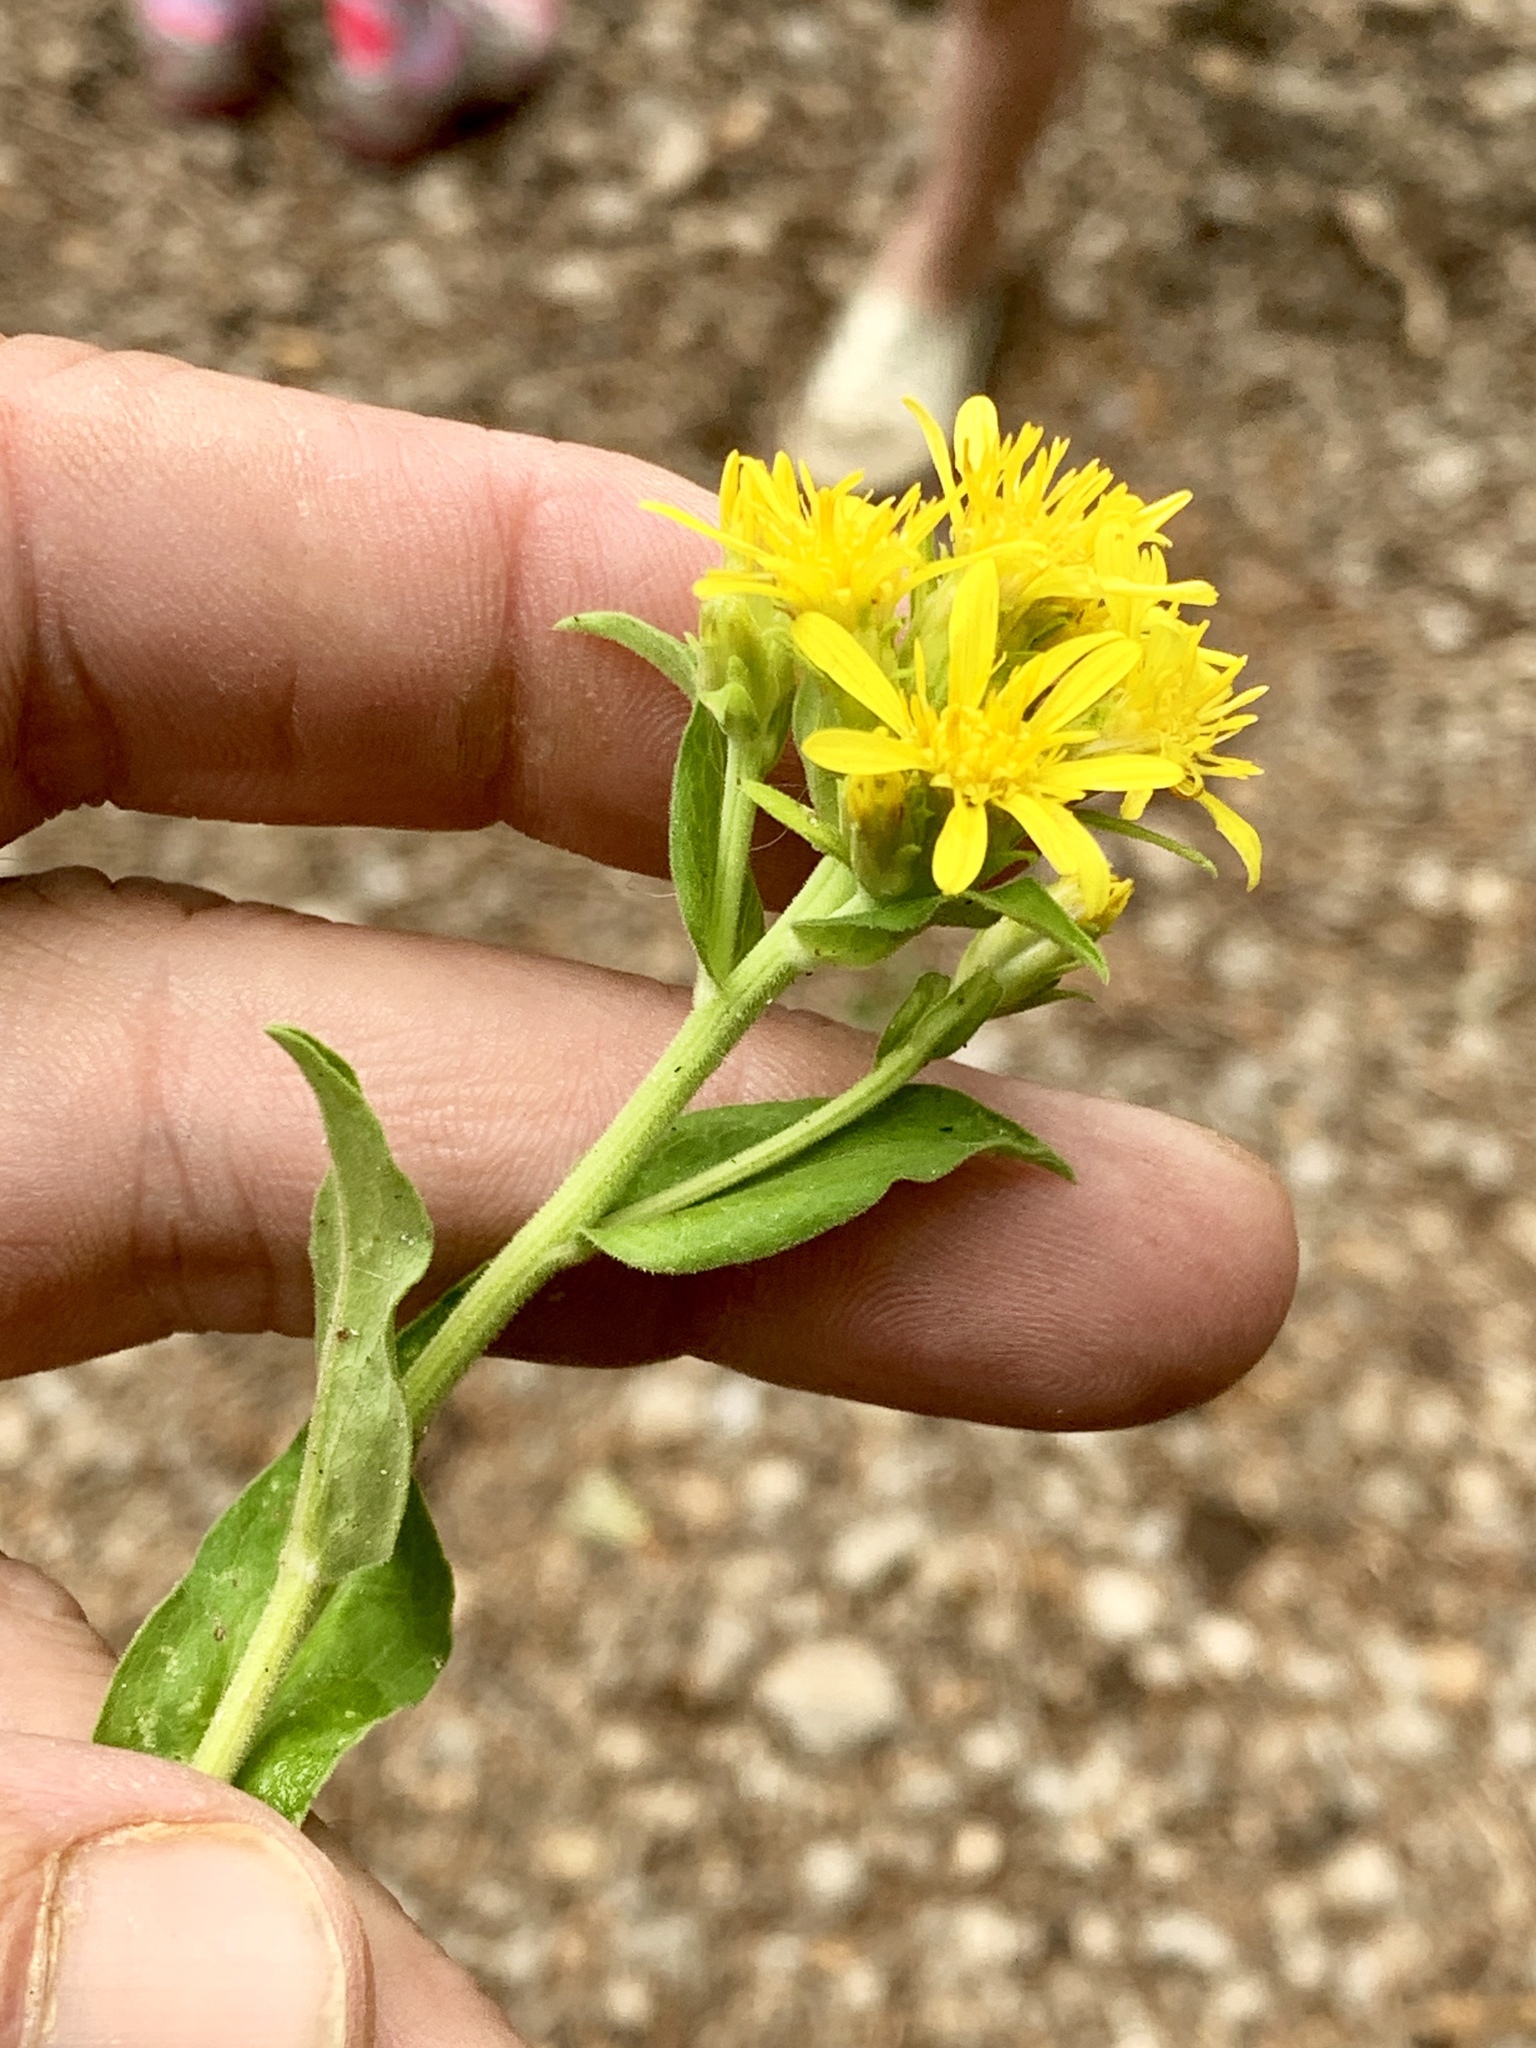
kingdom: Plantae
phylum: Tracheophyta
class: Magnoliopsida
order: Asterales
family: Asteraceae
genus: Oreochrysum
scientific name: Oreochrysum parryi
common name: Parry's goldenweed
